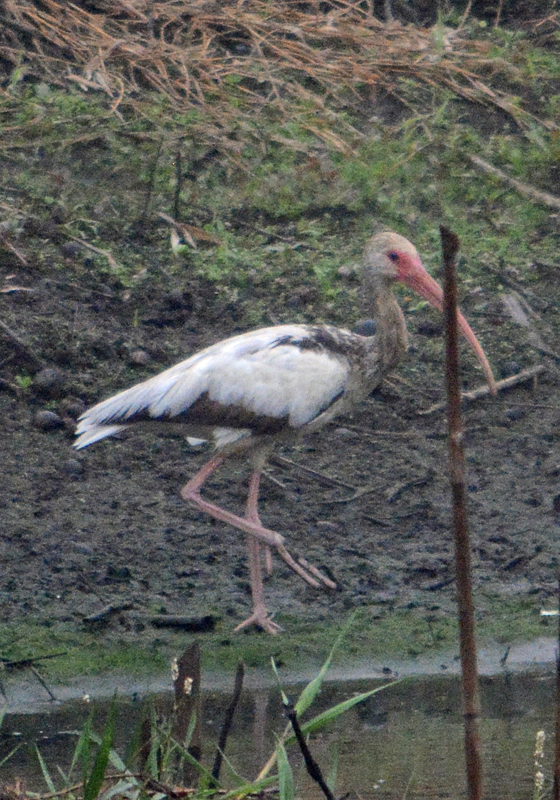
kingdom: Animalia
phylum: Chordata
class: Aves
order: Pelecaniformes
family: Threskiornithidae
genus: Eudocimus
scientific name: Eudocimus albus
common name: White ibis
